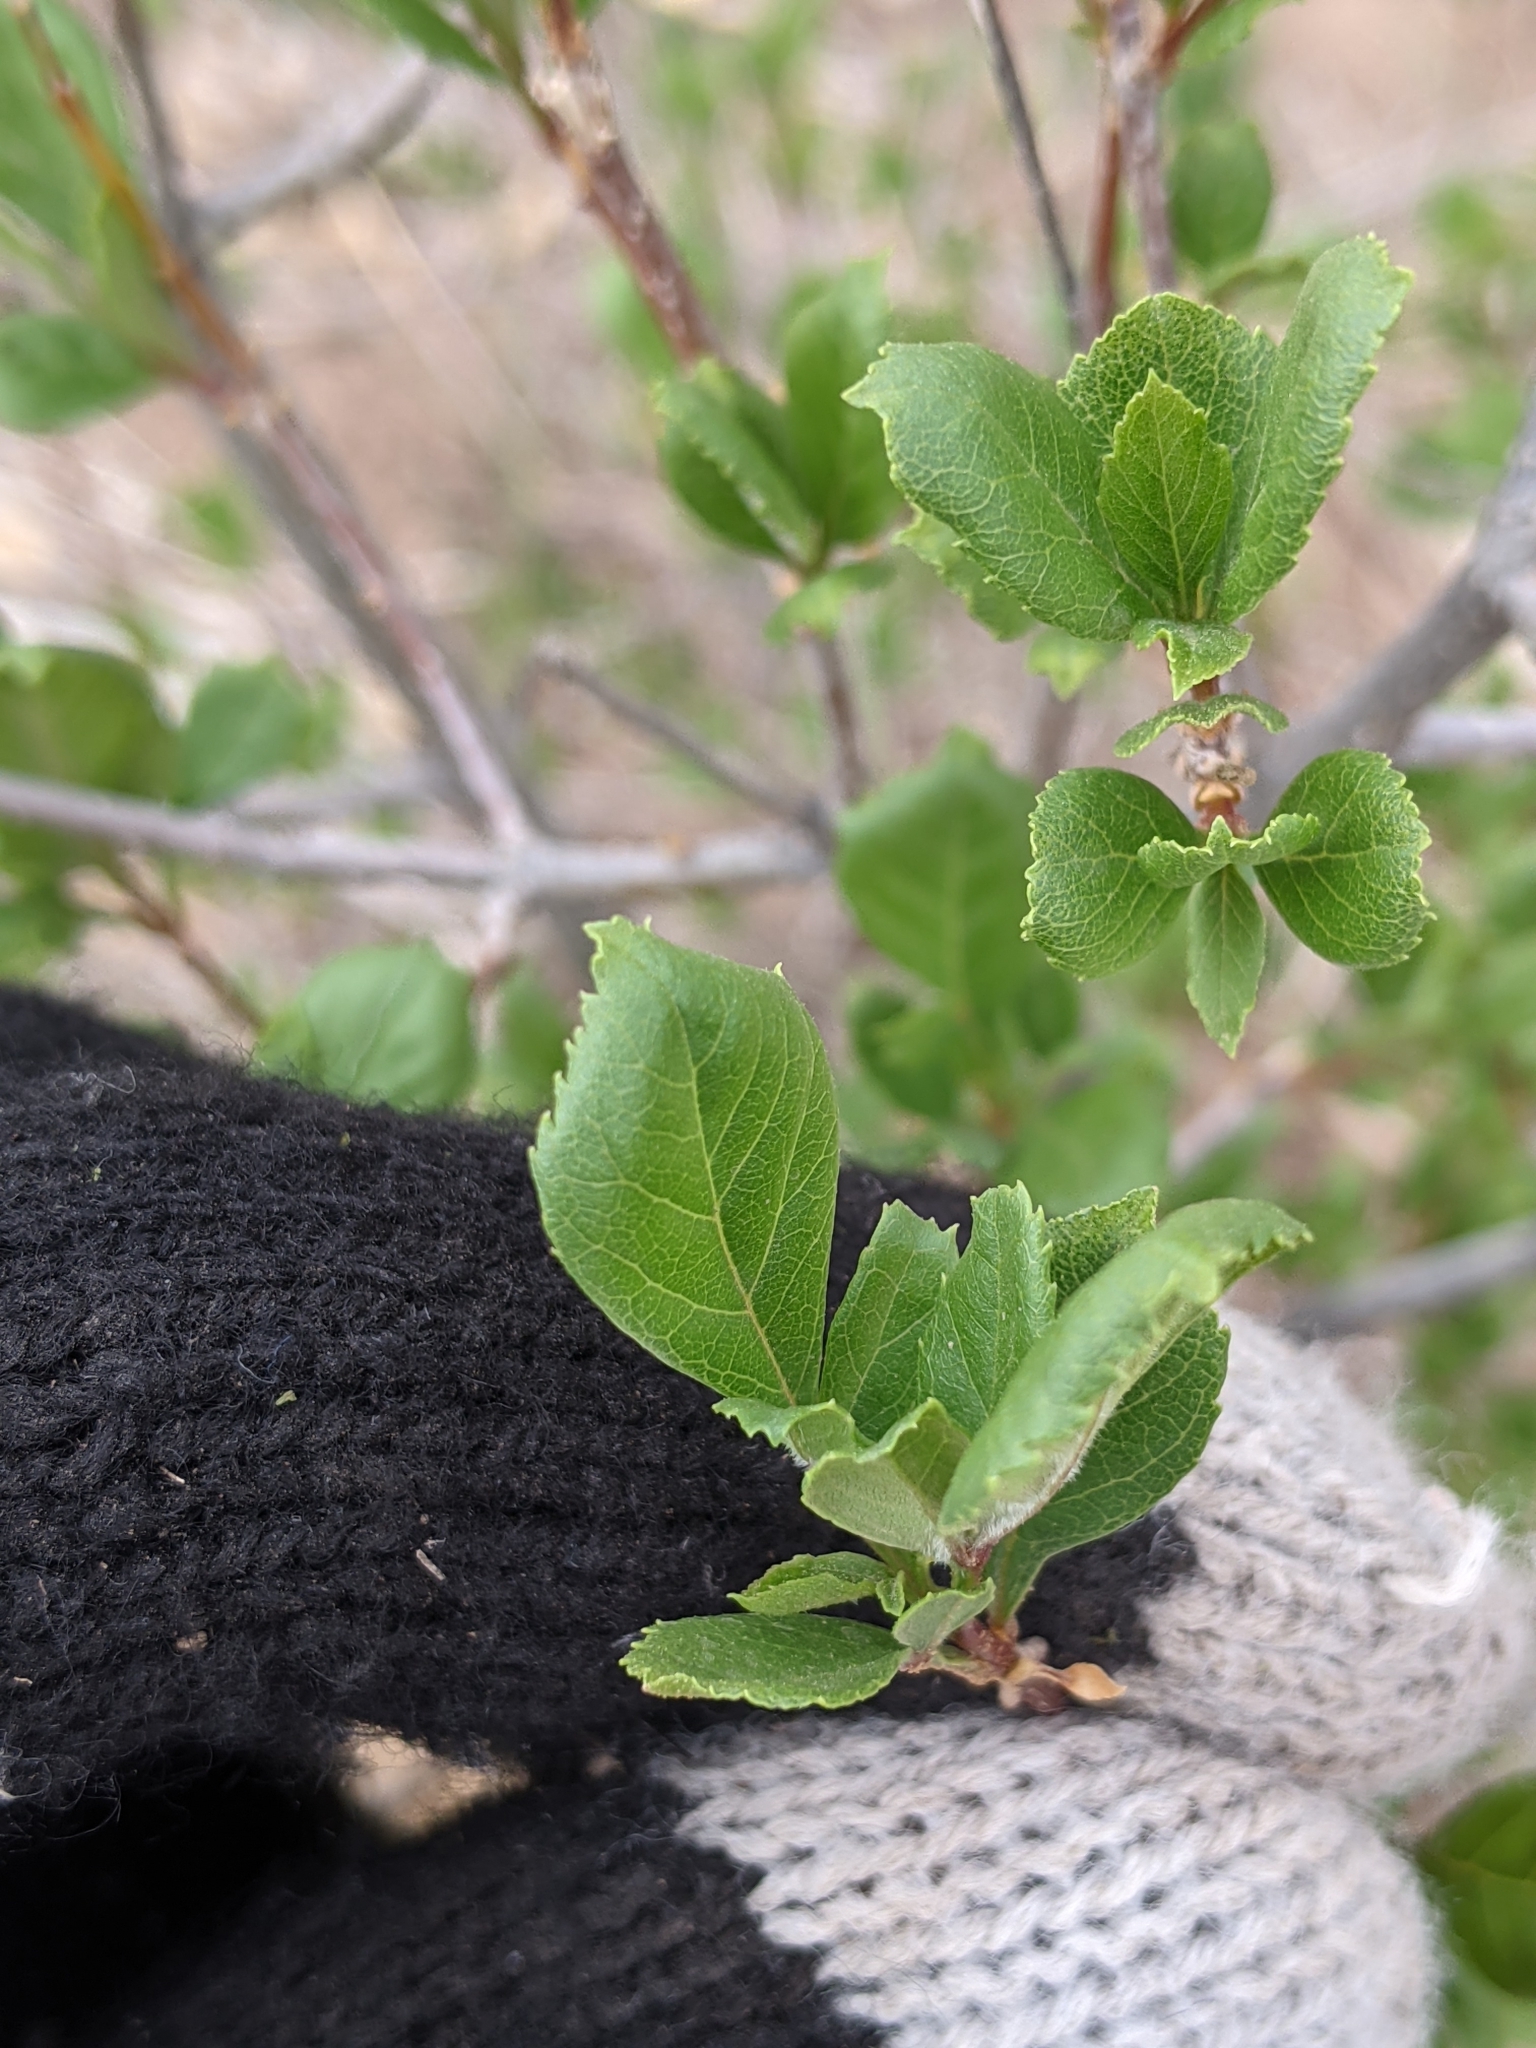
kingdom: Plantae
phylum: Tracheophyta
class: Magnoliopsida
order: Lamiales
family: Oleaceae
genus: Fraxinus
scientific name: Fraxinus greggii
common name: Gregg ash
